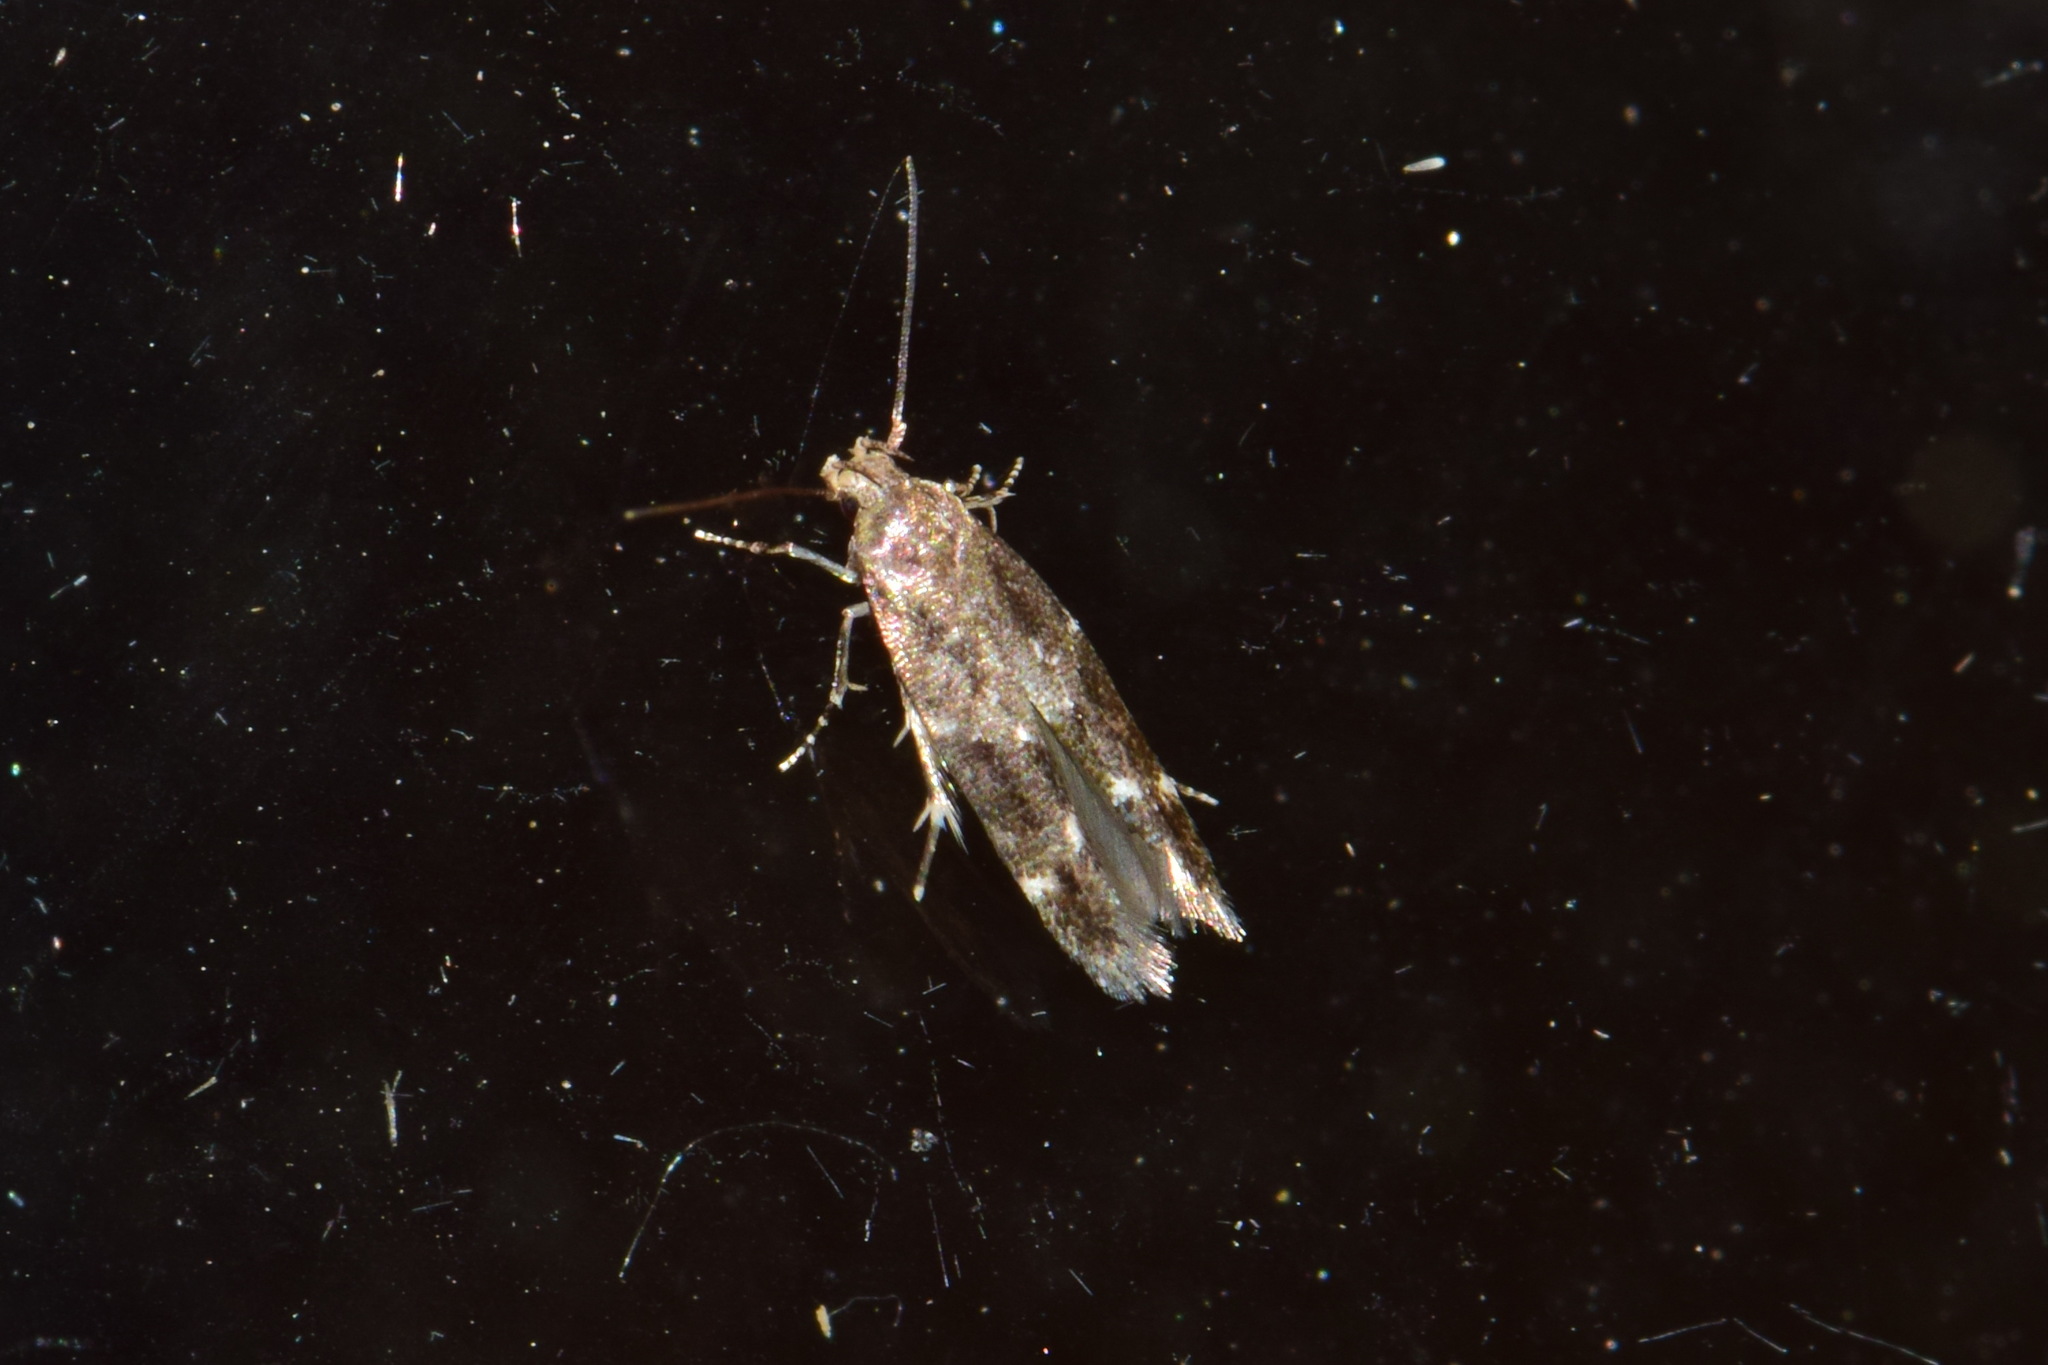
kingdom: Animalia
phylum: Arthropoda
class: Insecta
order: Lepidoptera
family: Momphidae
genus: Mompha
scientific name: Mompha subbistrigella
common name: Garden cosmet
